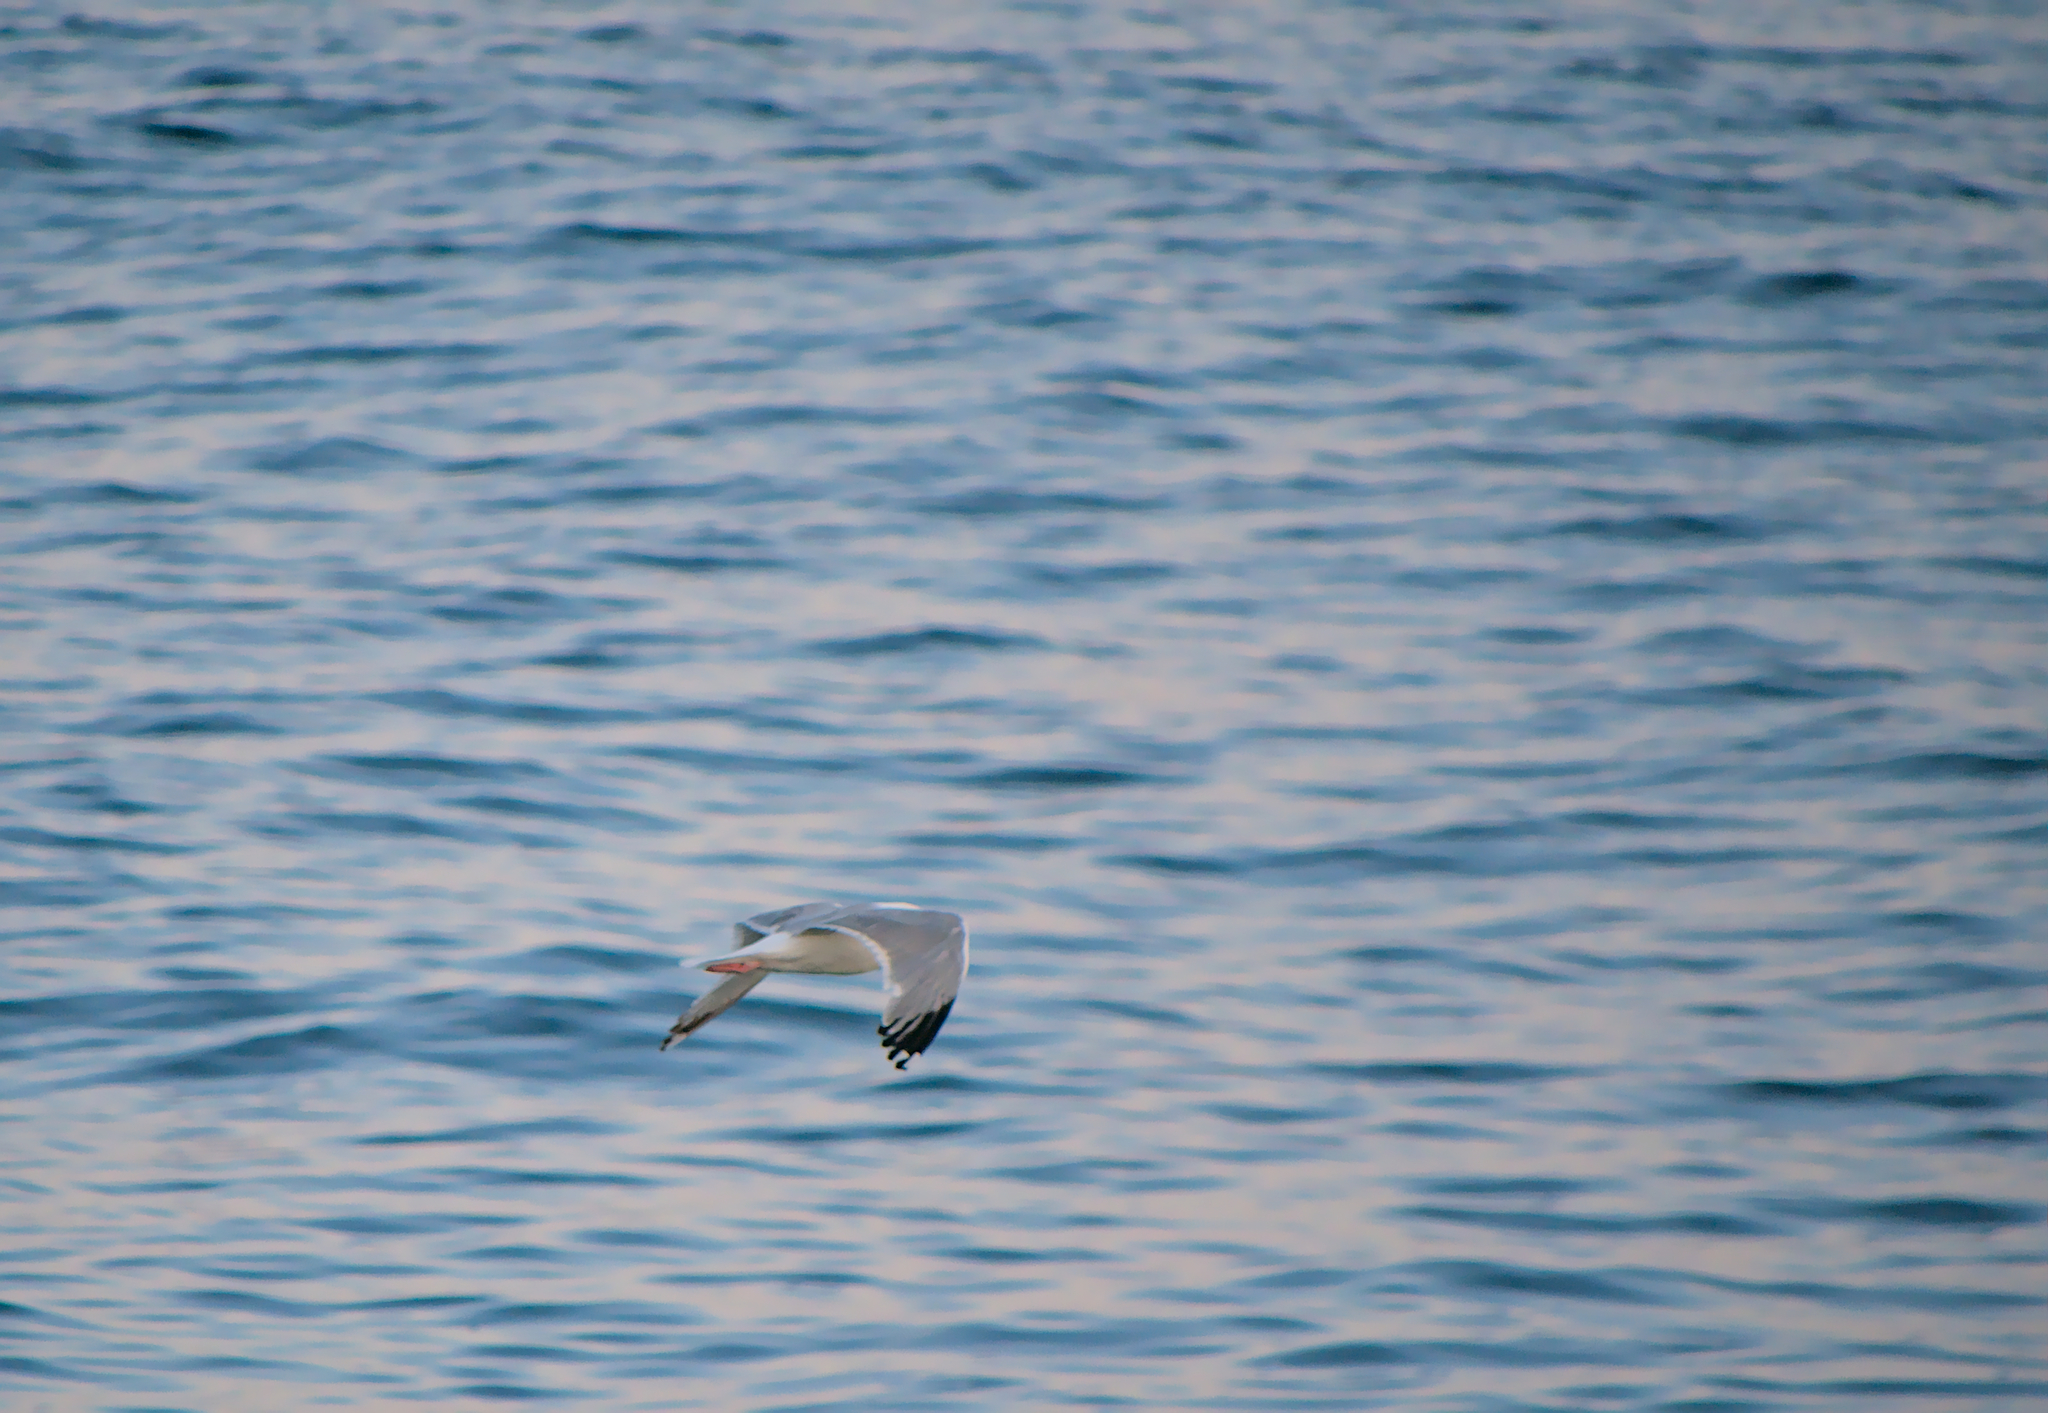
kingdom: Animalia
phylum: Chordata
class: Aves
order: Charadriiformes
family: Laridae
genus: Larus
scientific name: Larus argentatus
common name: Herring gull
